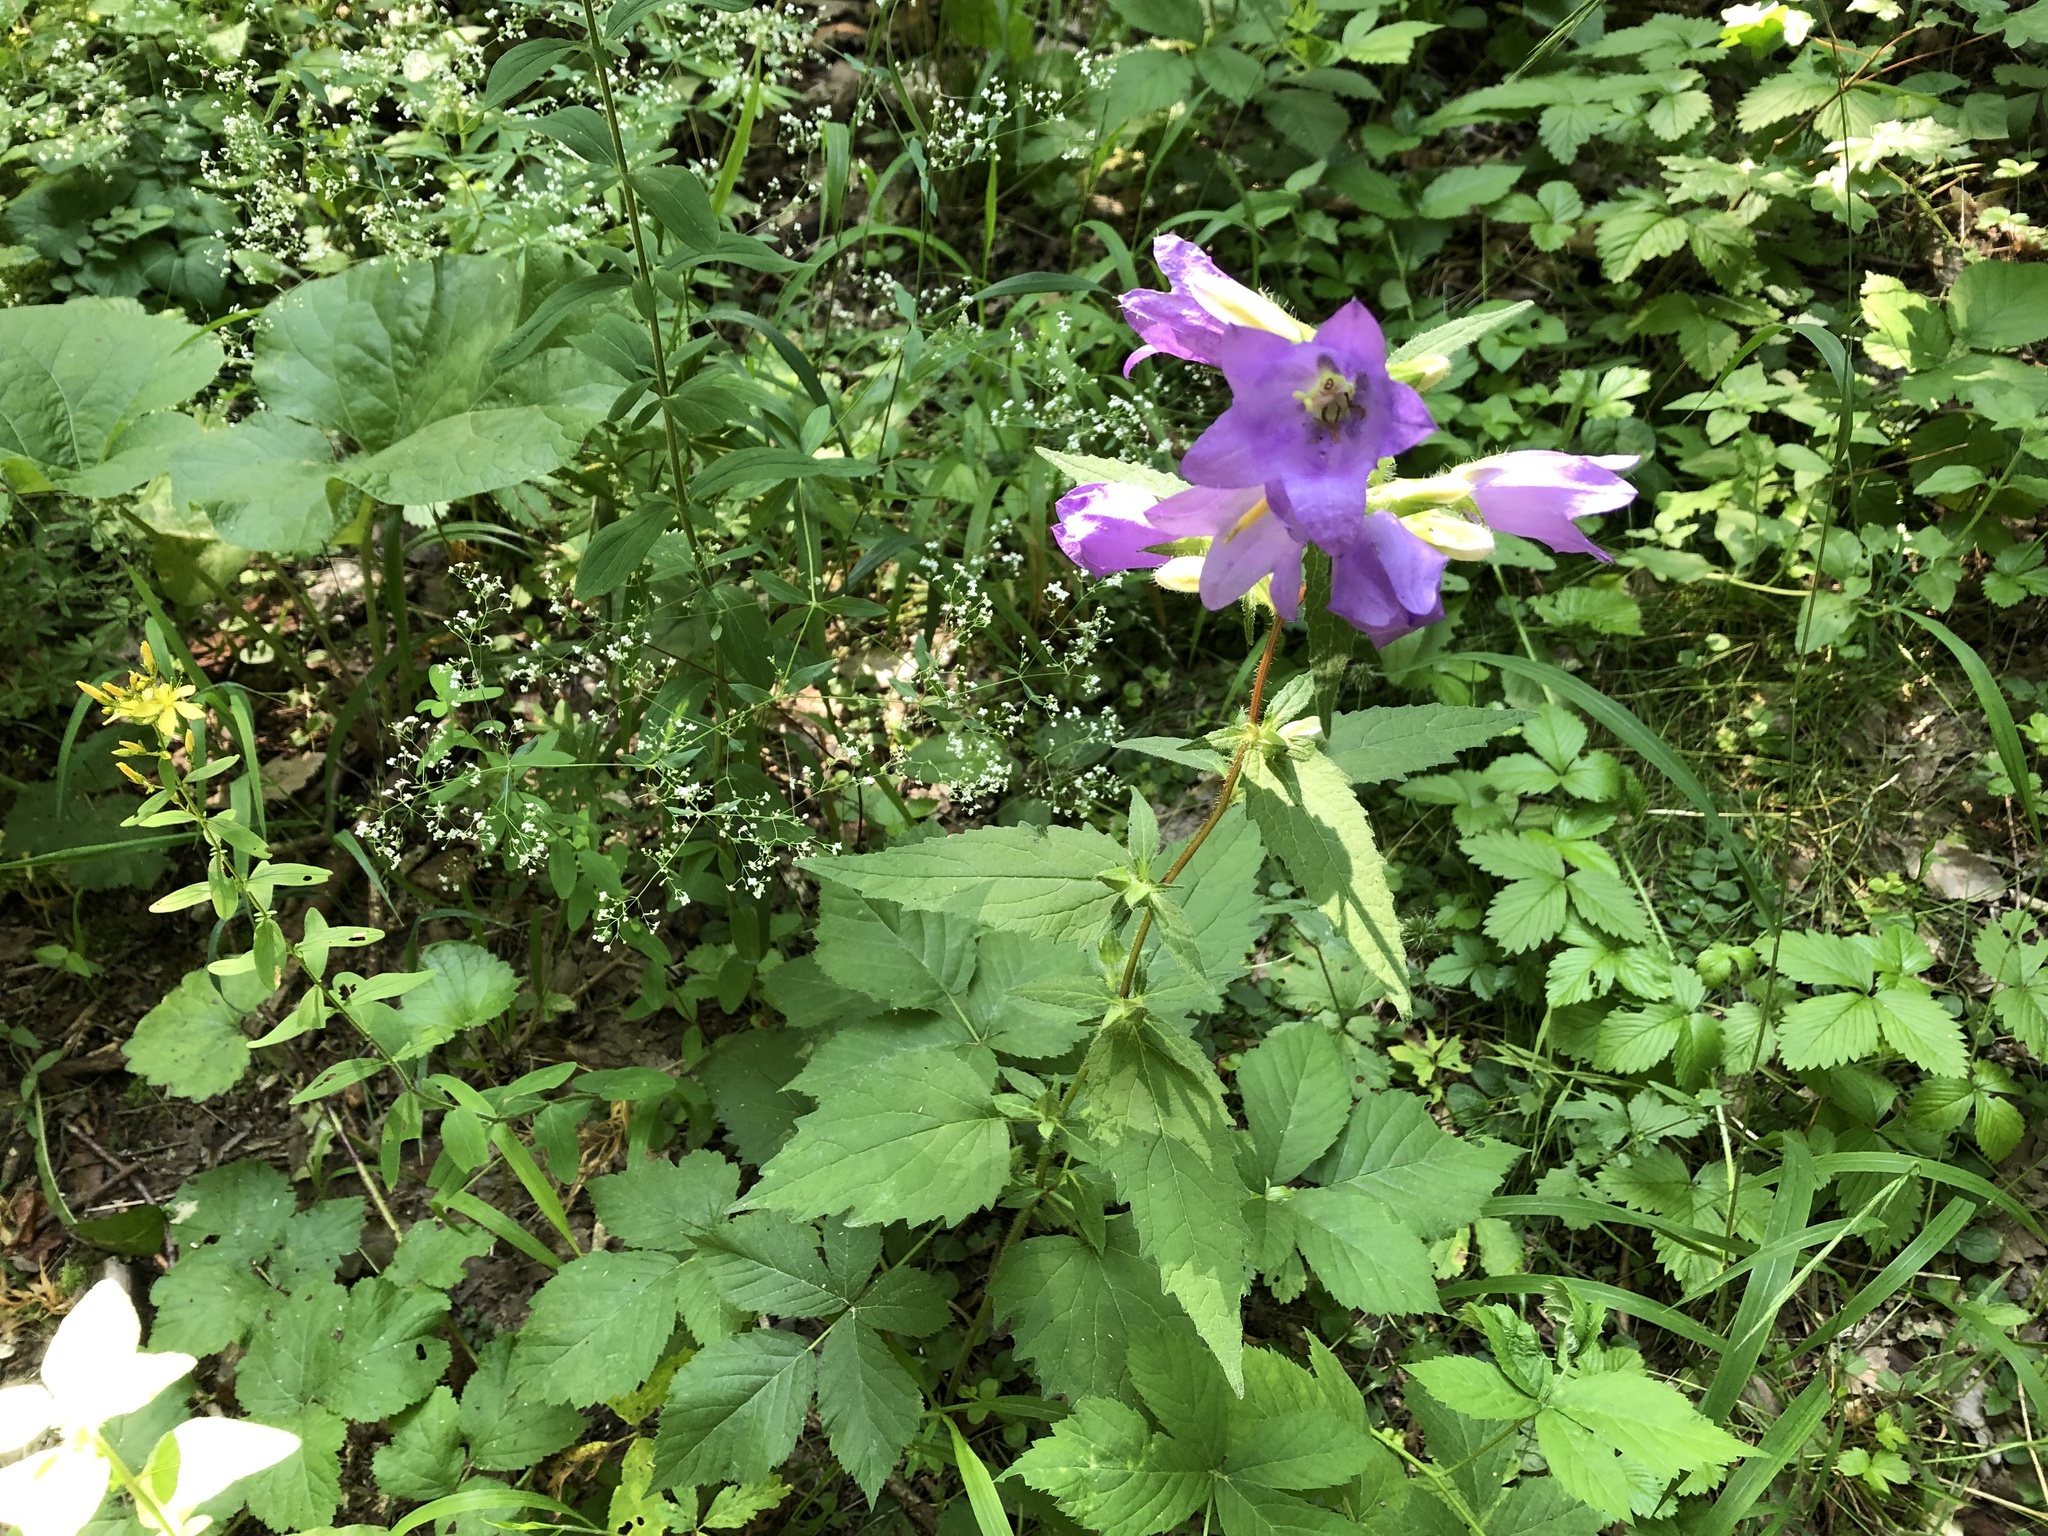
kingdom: Plantae
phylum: Tracheophyta
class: Magnoliopsida
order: Asterales
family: Campanulaceae
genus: Campanula
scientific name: Campanula trachelium
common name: Nettle-leaved bellflower
